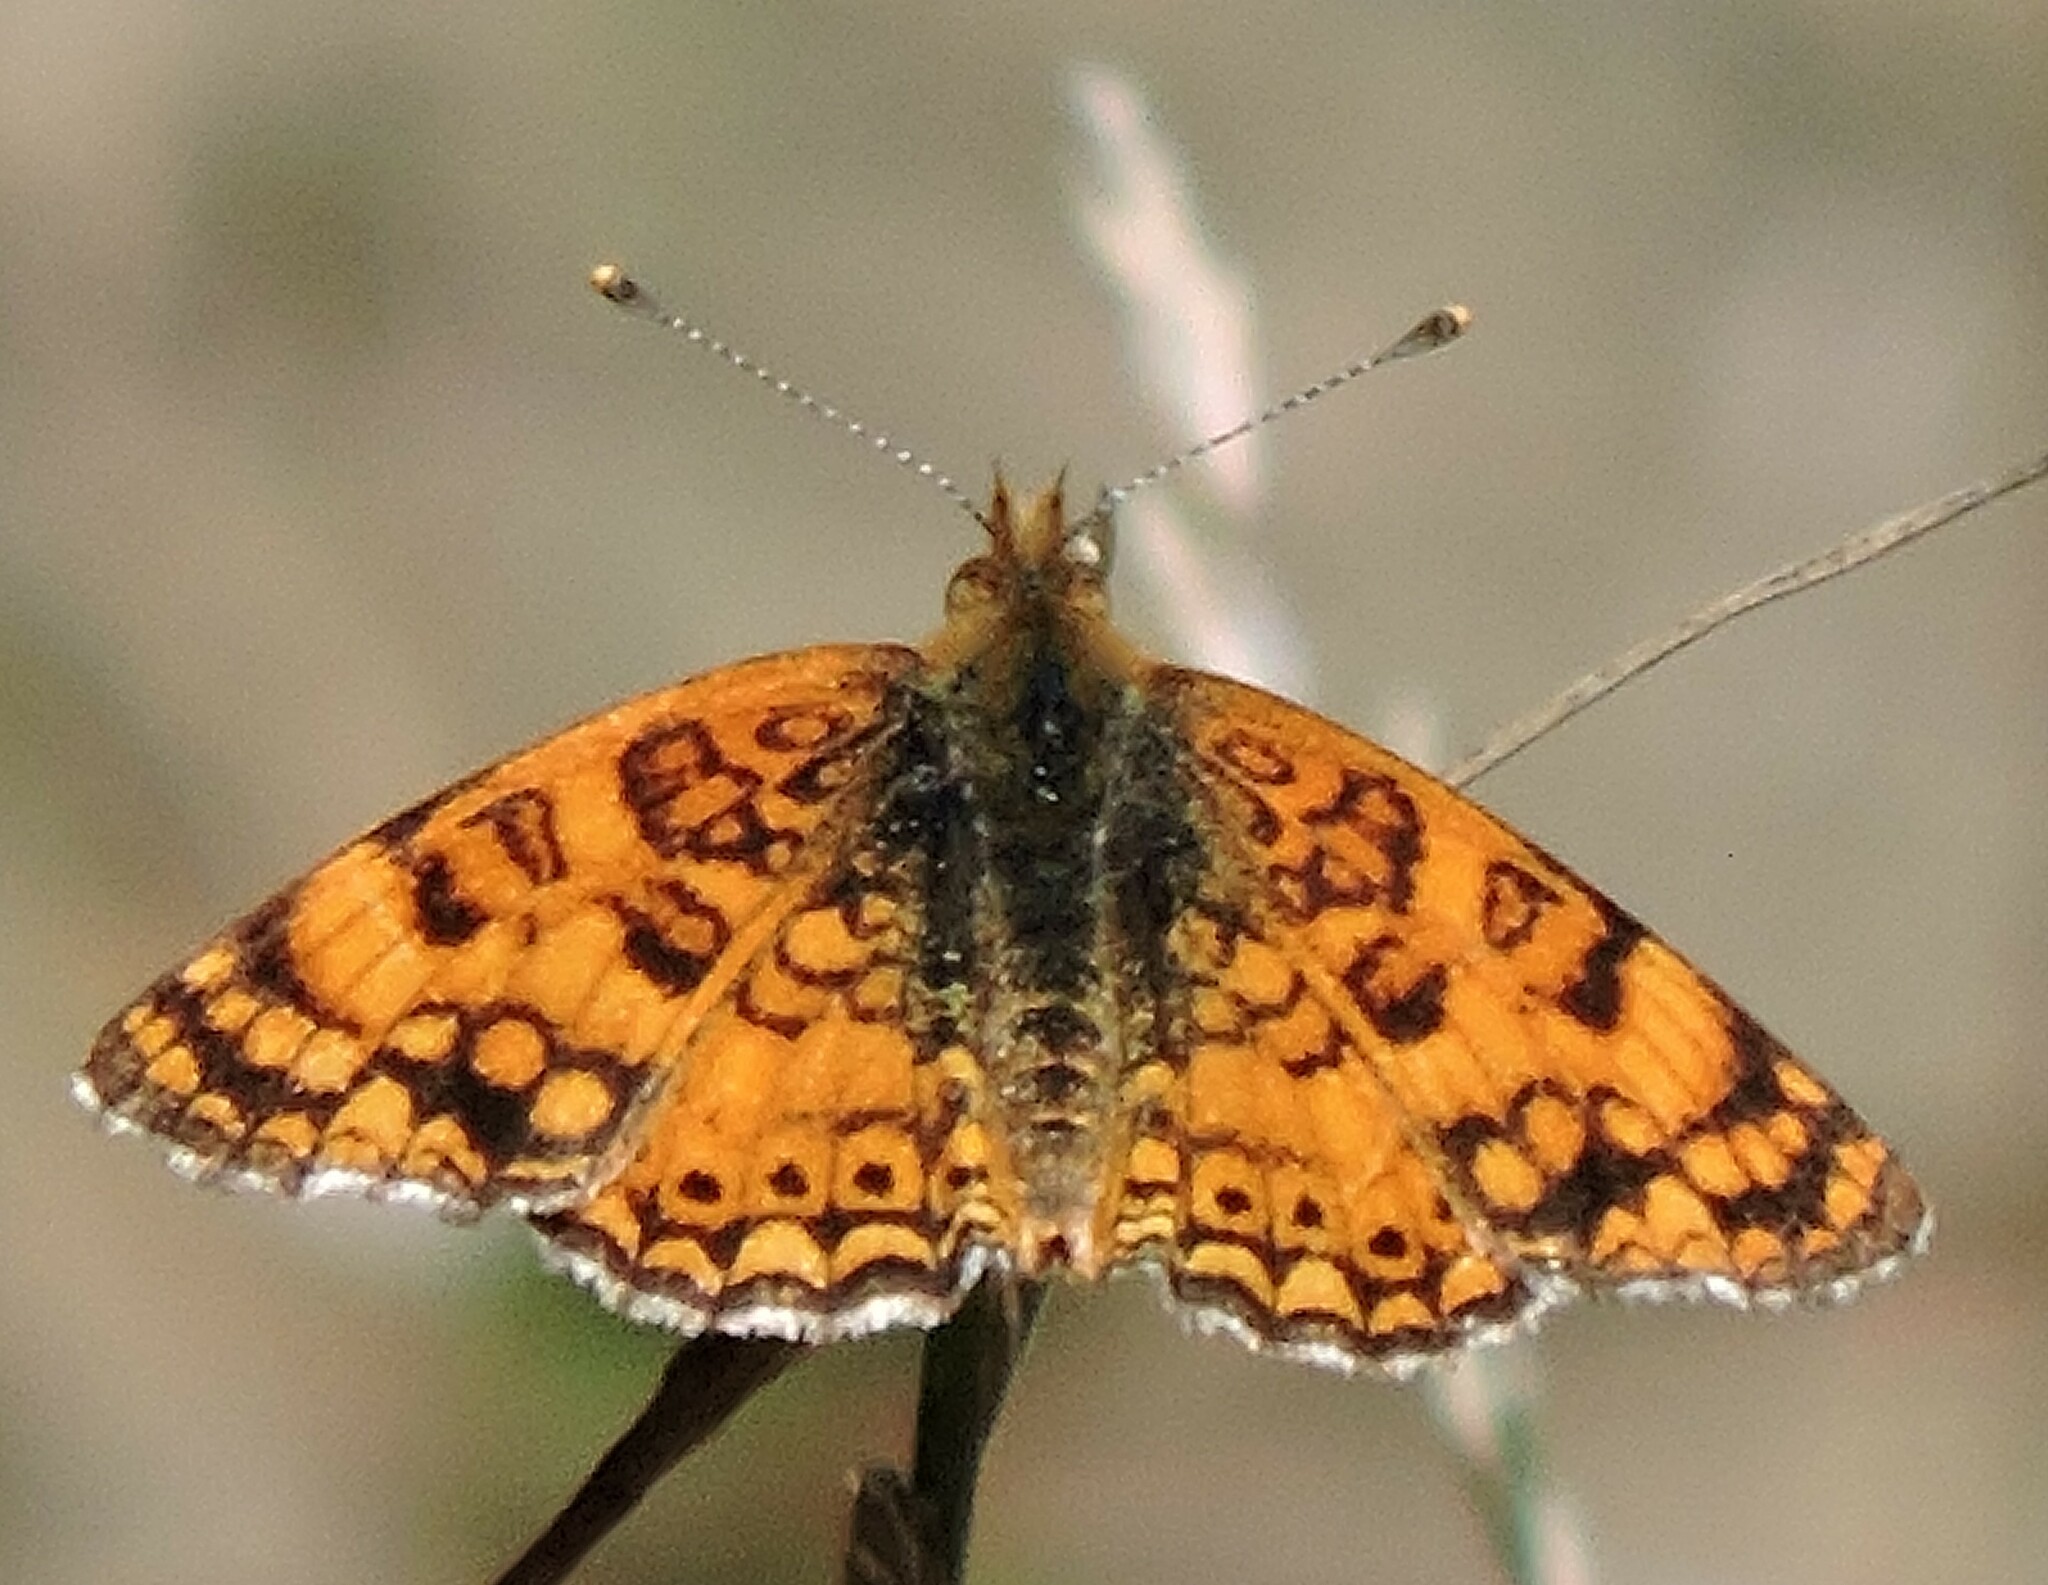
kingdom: Animalia
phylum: Arthropoda
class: Insecta
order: Lepidoptera
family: Nymphalidae
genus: Eresia
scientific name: Eresia aveyrona
